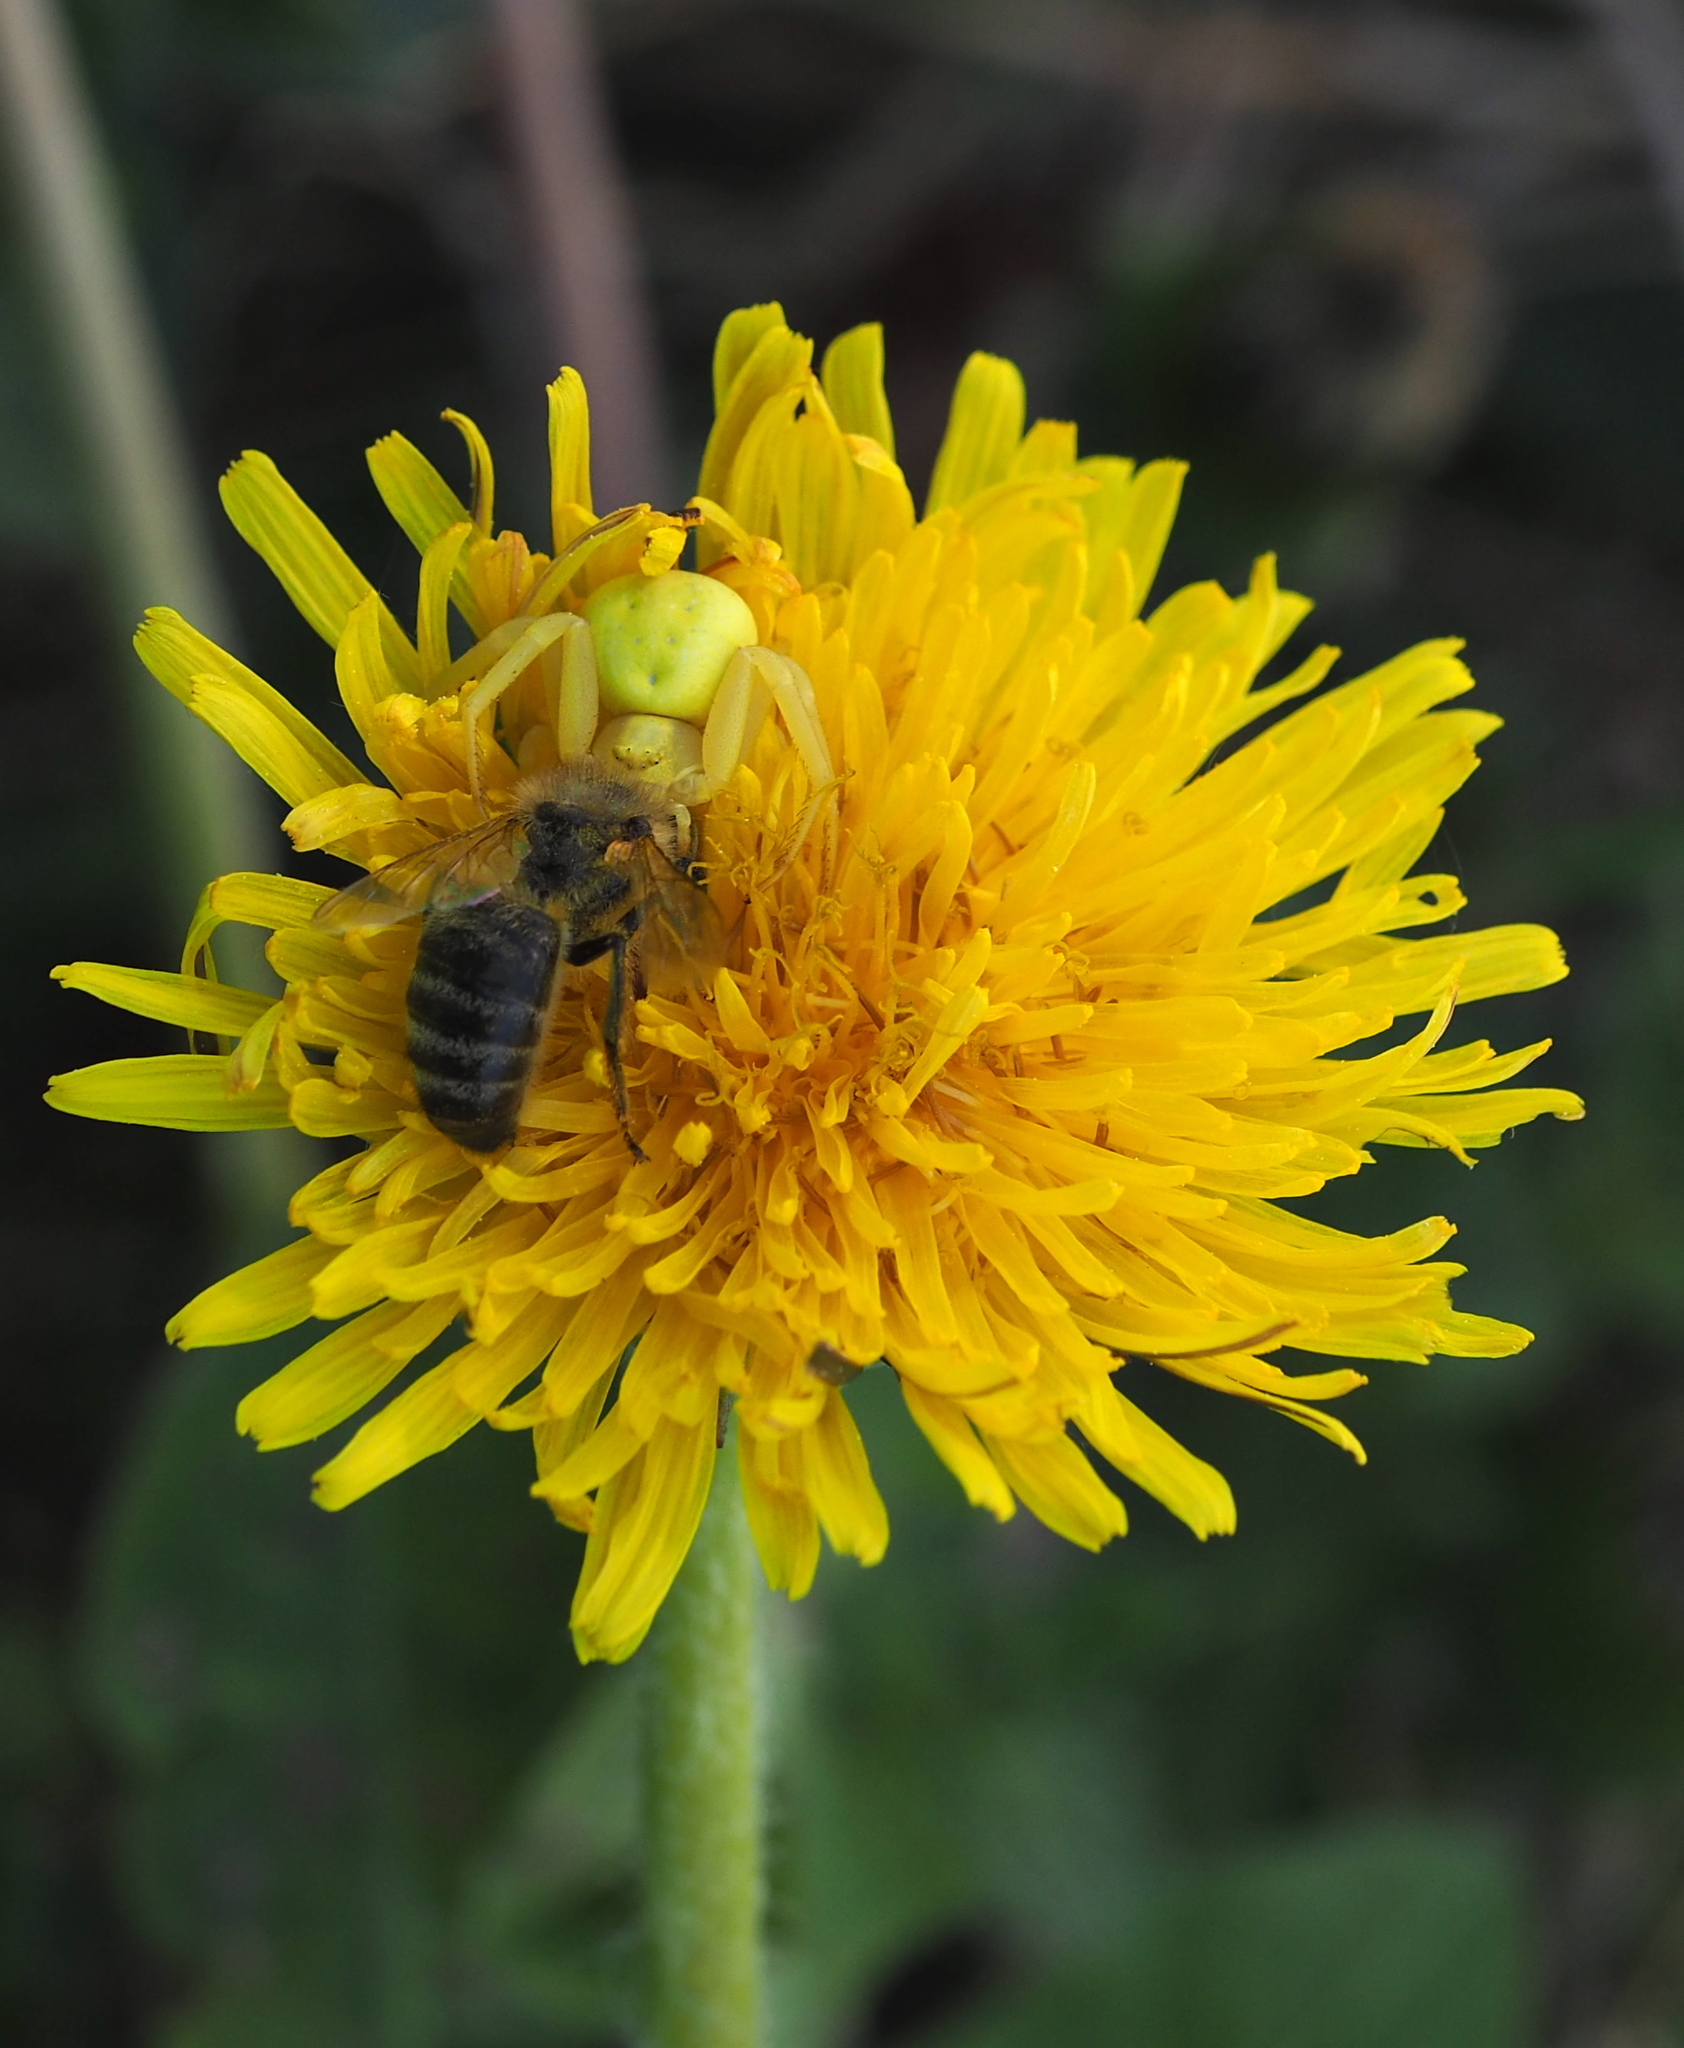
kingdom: Animalia
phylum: Arthropoda
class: Arachnida
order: Araneae
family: Thomisidae
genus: Misumena
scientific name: Misumena vatia
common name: Goldenrod crab spider
